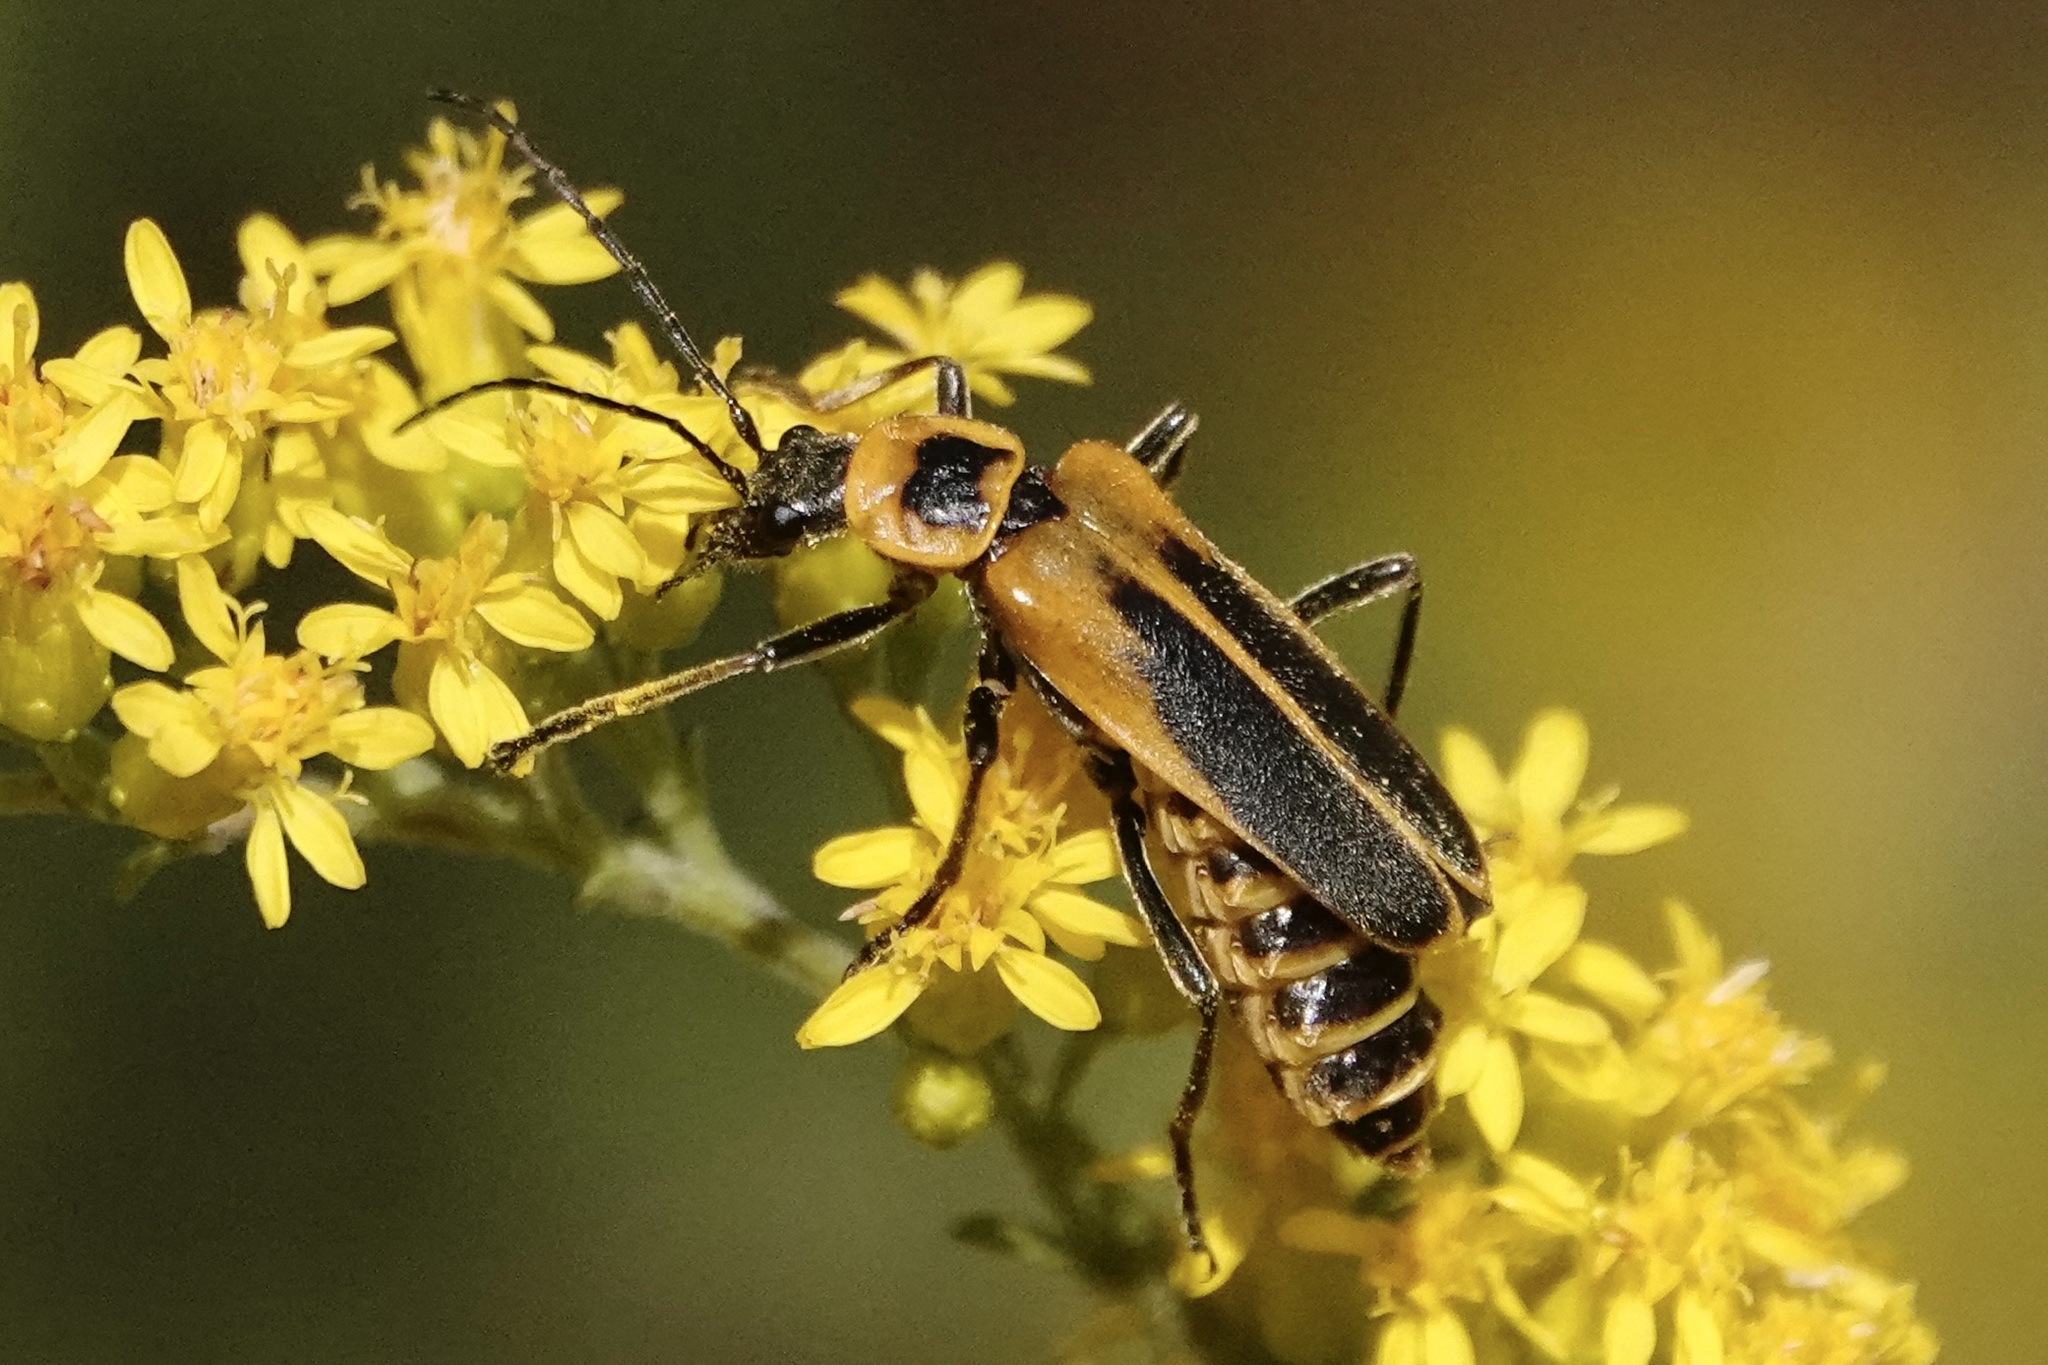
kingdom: Animalia
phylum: Arthropoda
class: Insecta
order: Coleoptera
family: Cantharidae
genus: Chauliognathus
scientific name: Chauliognathus pensylvanicus
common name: Goldenrod soldier beetle
